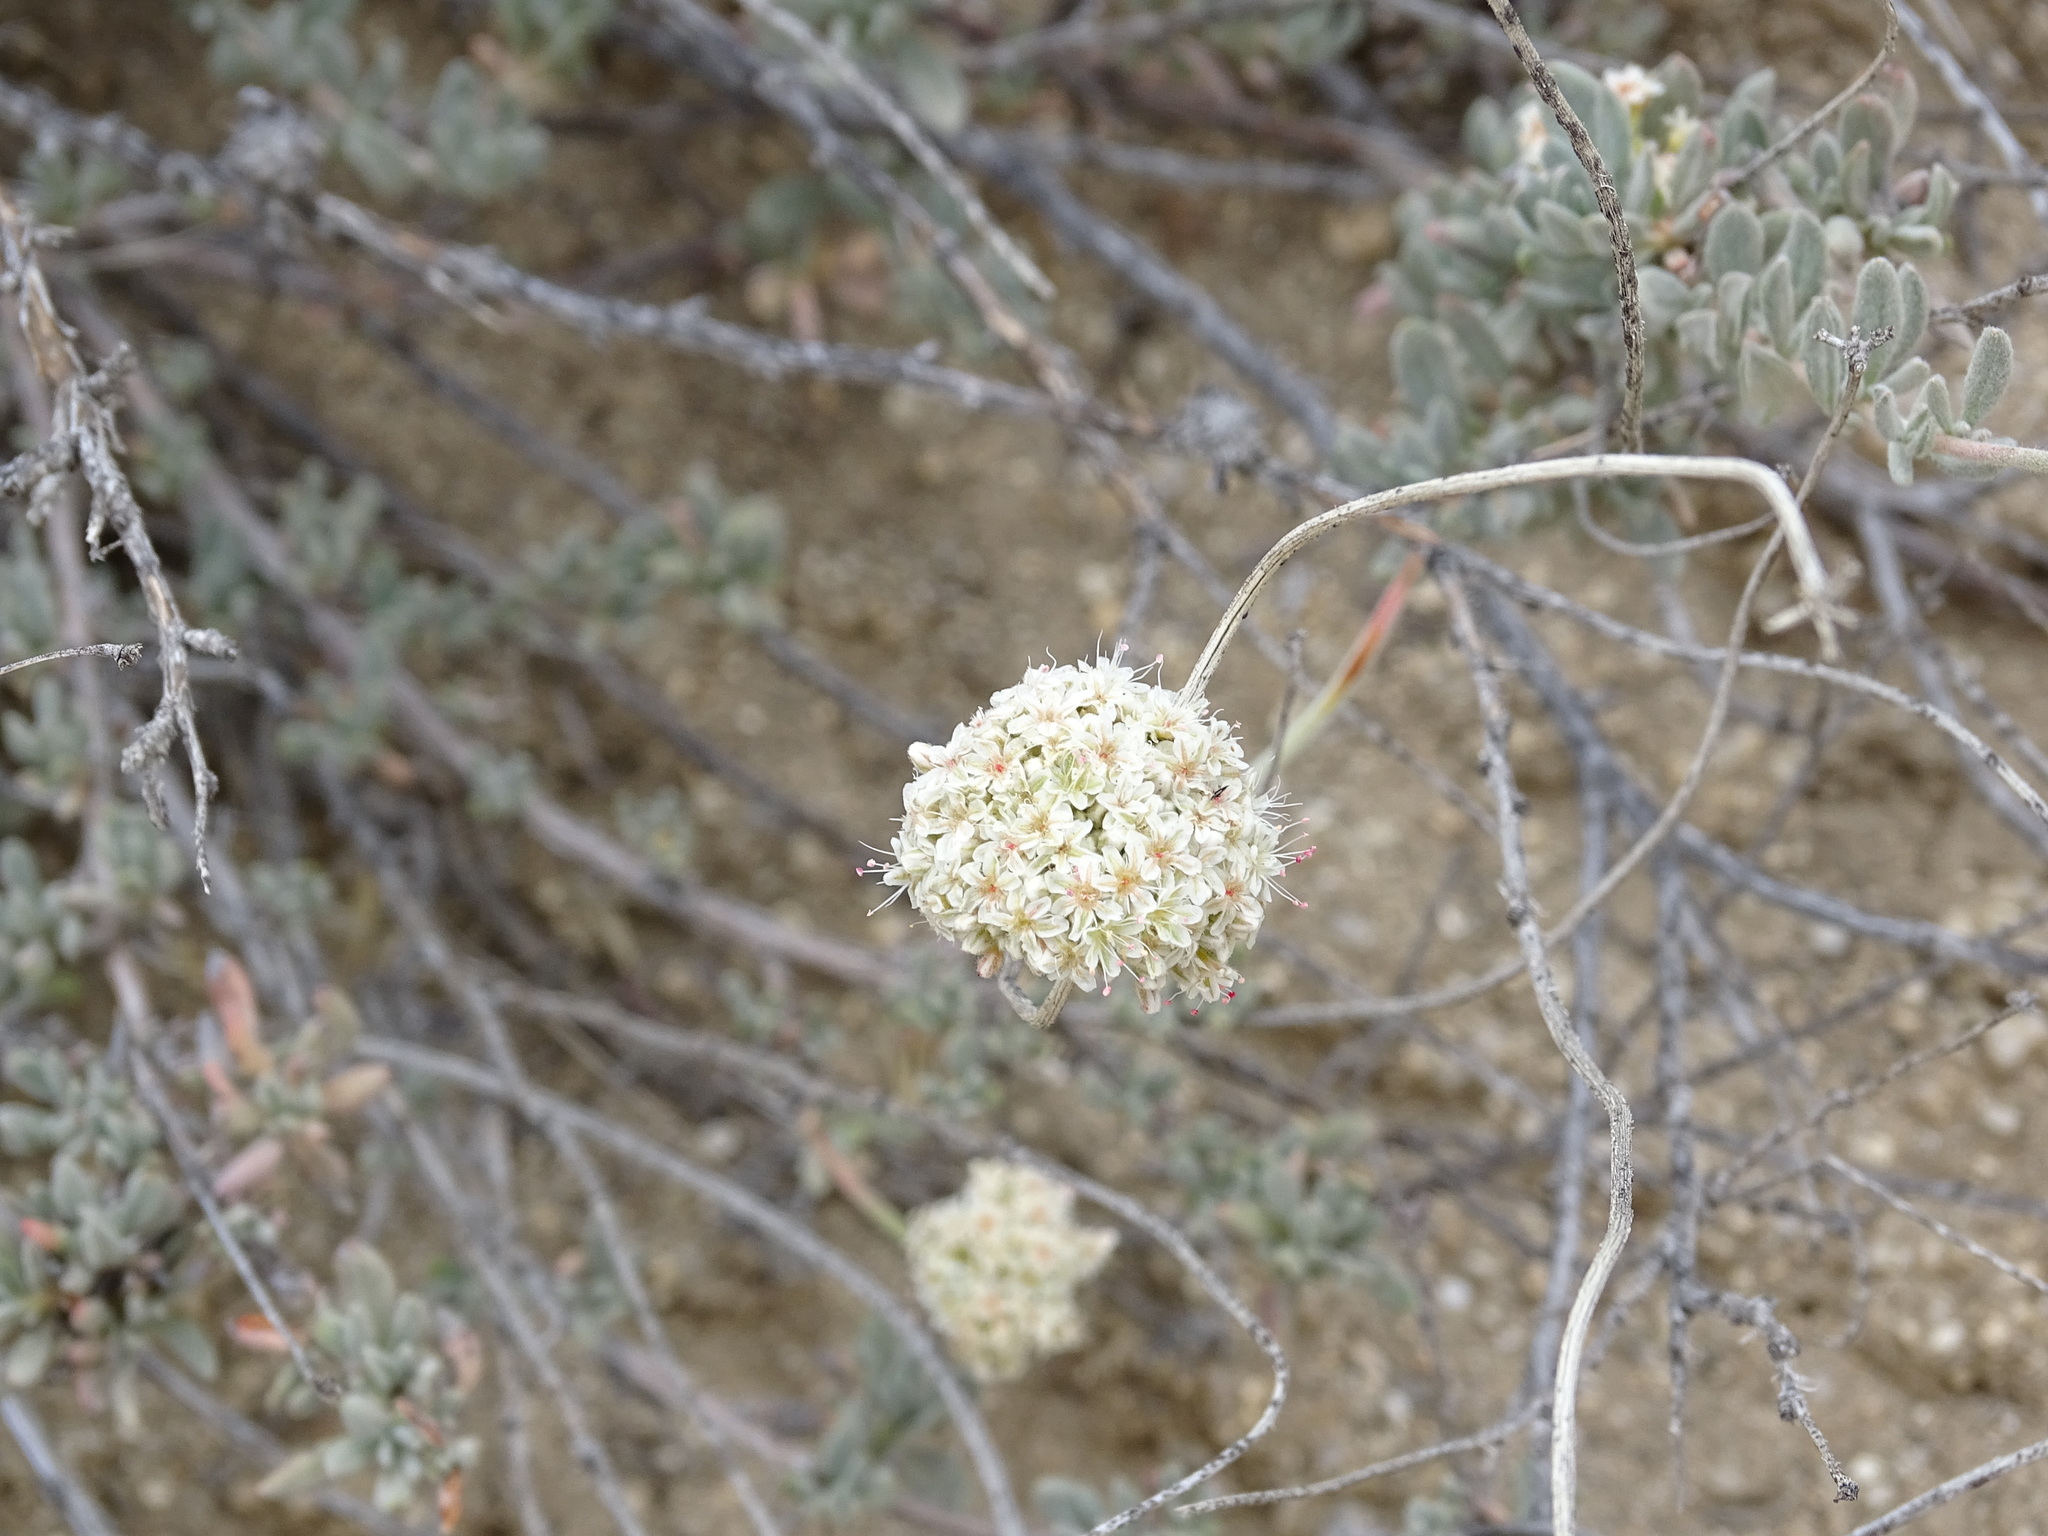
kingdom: Plantae
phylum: Tracheophyta
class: Magnoliopsida
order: Caryophyllales
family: Polygonaceae
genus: Eriogonum
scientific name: Eriogonum fasciculatum
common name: California wild buckwheat
